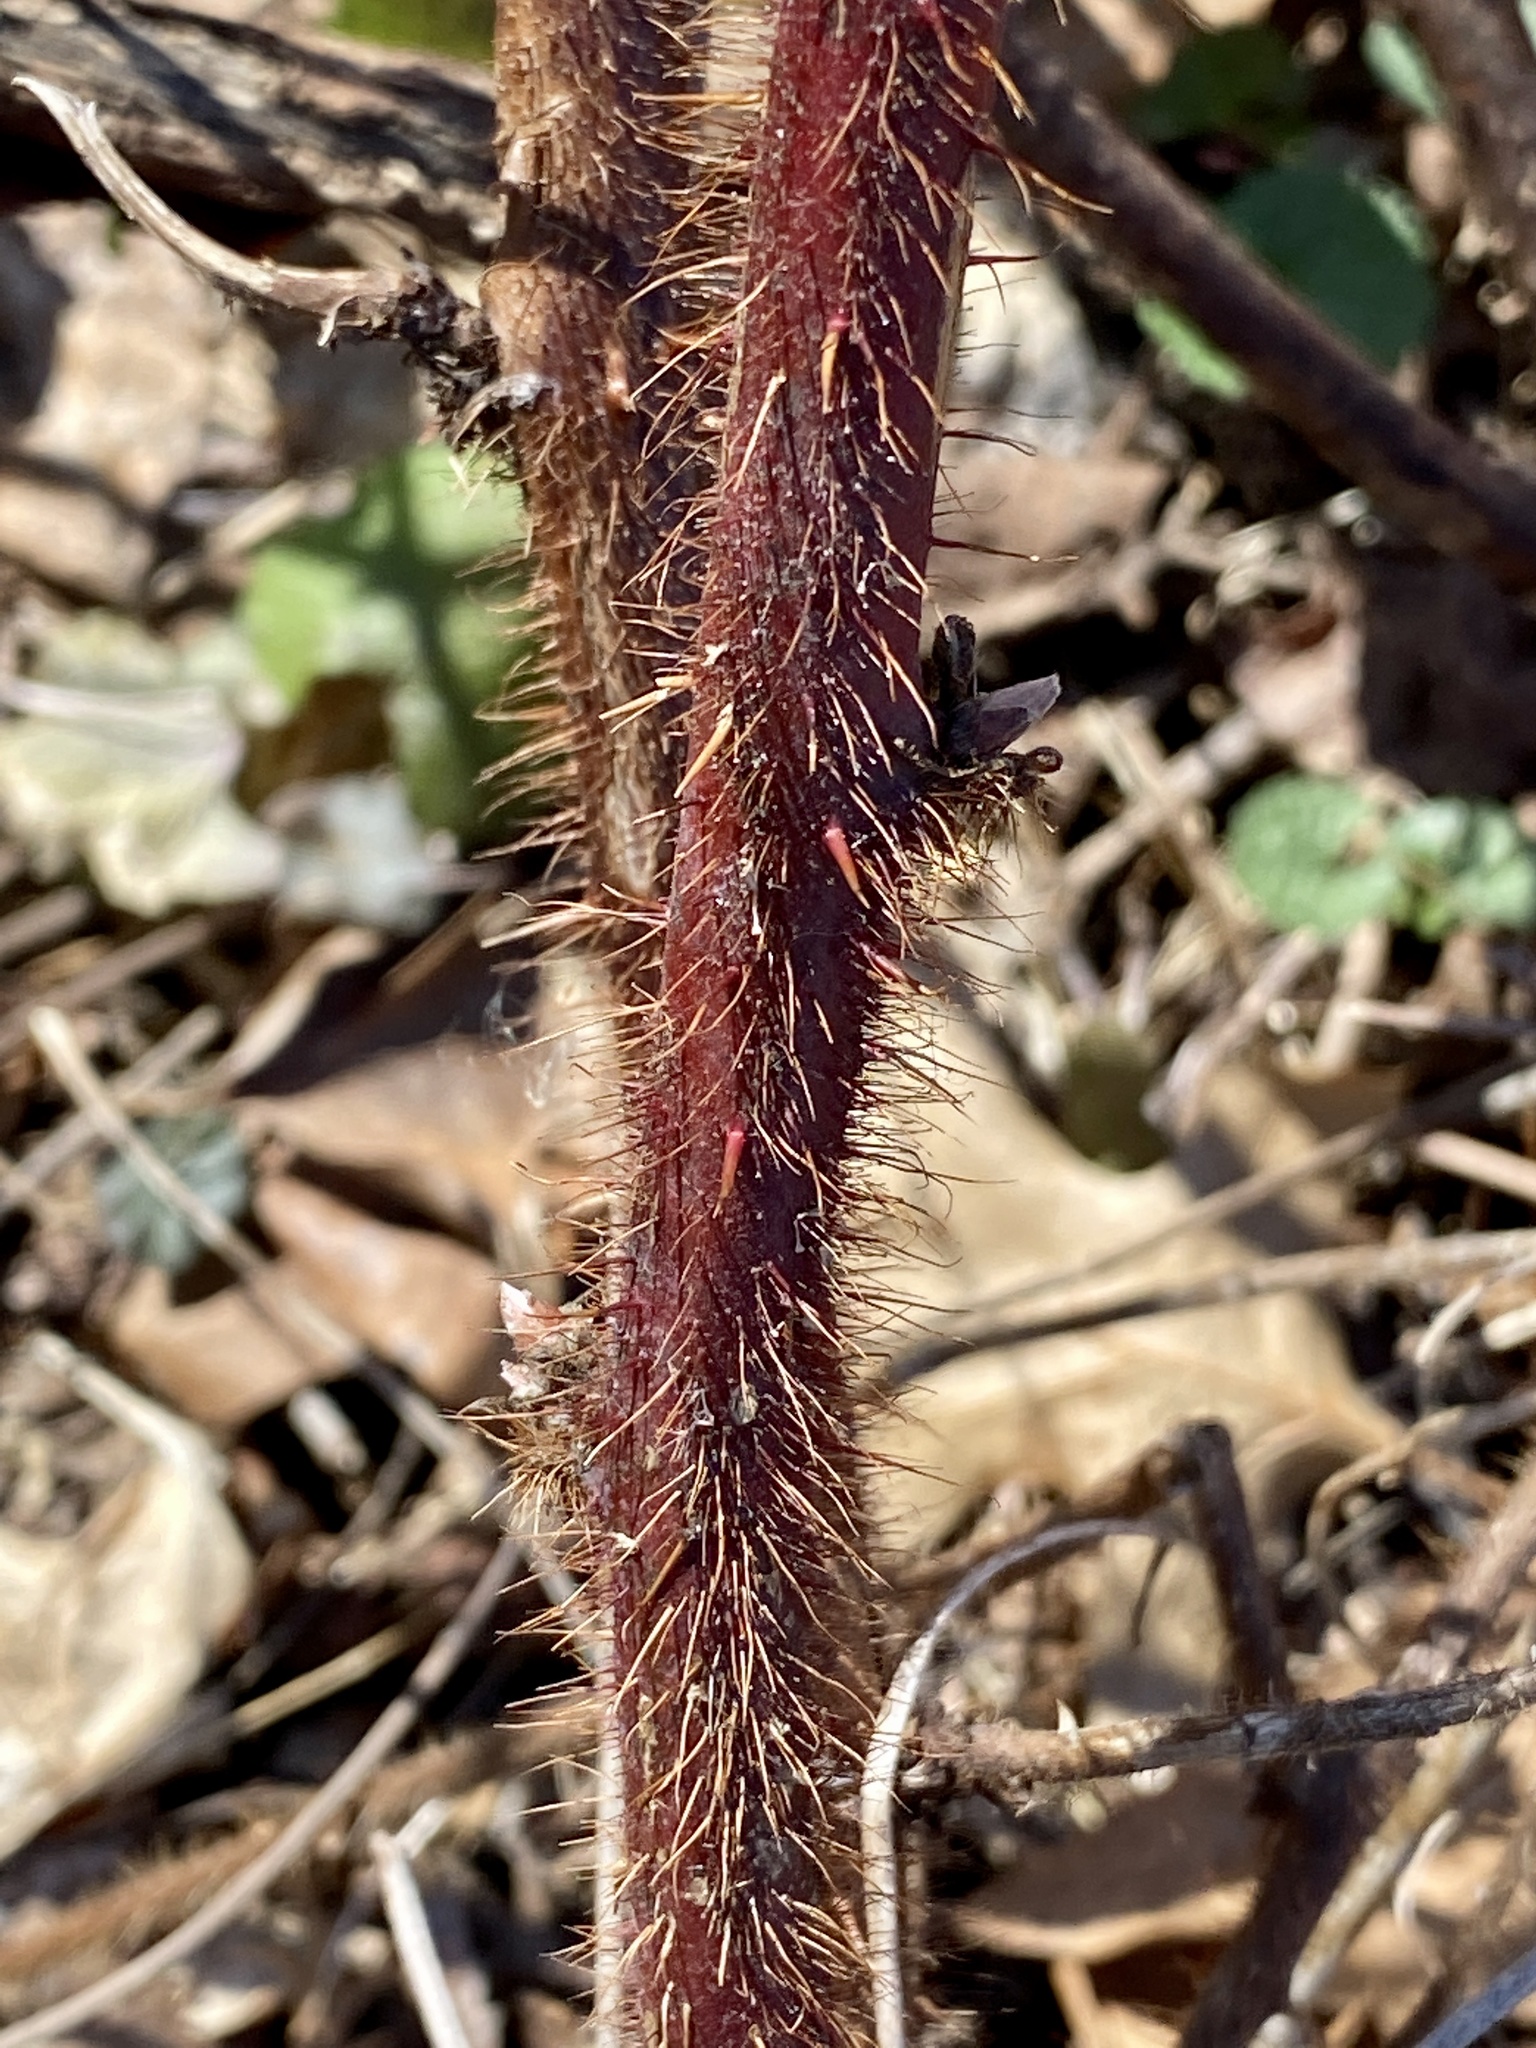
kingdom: Plantae
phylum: Tracheophyta
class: Magnoliopsida
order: Rosales
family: Rosaceae
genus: Rubus
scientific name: Rubus phoenicolasius
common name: Japanese wineberry
